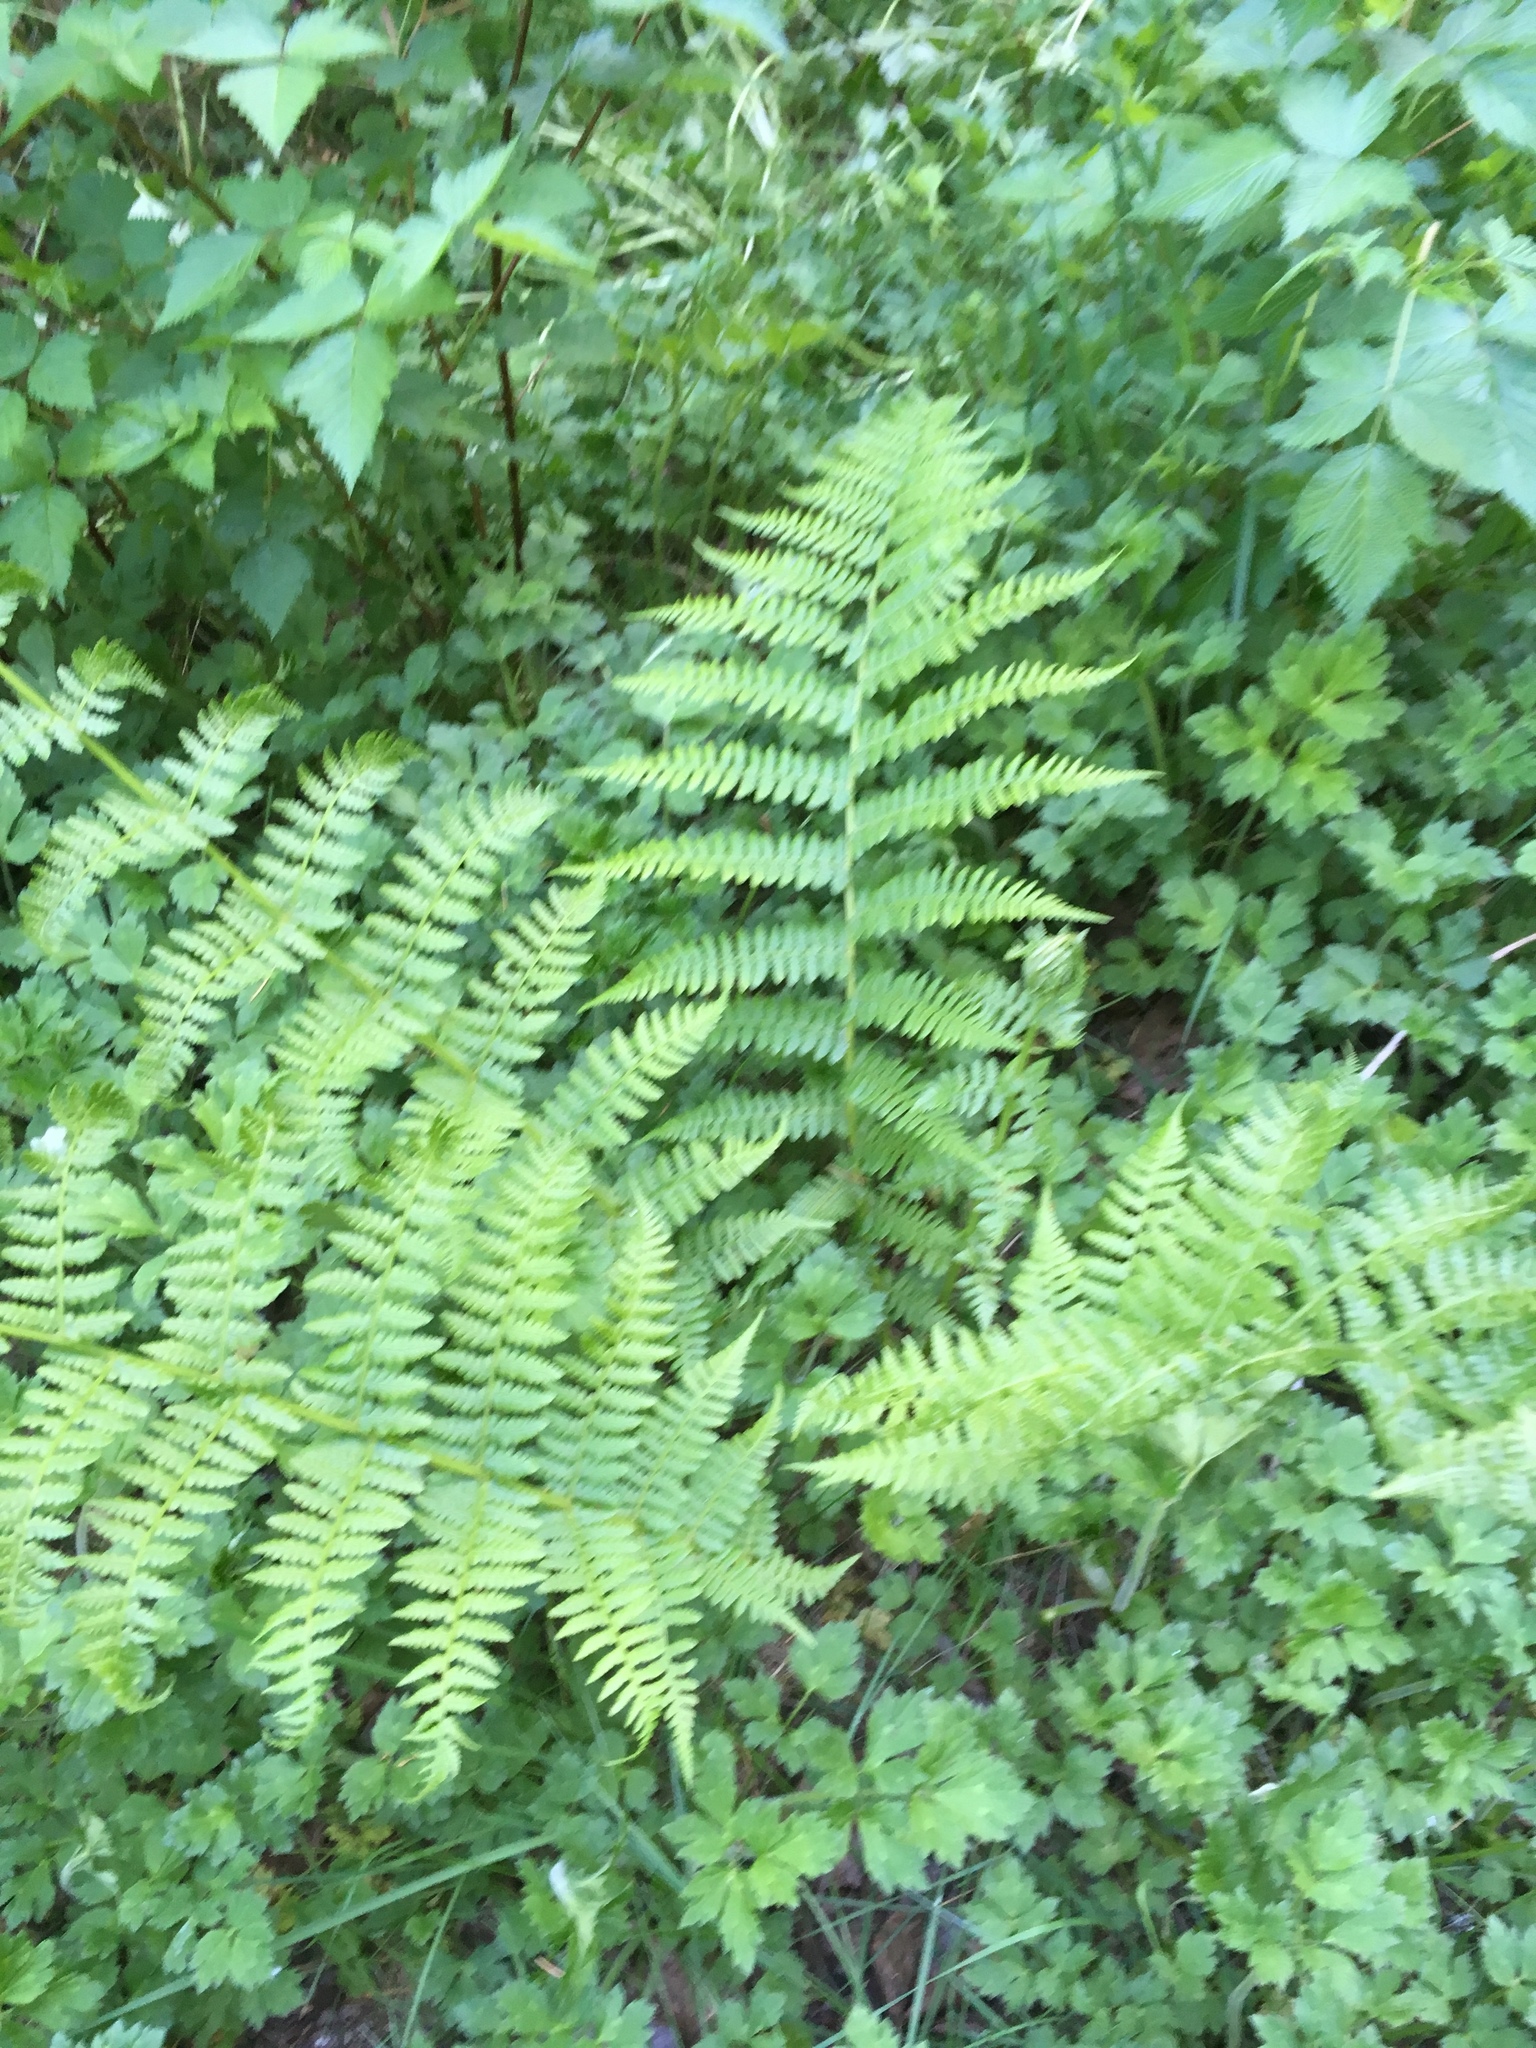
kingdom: Plantae
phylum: Tracheophyta
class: Polypodiopsida
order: Polypodiales
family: Athyriaceae
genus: Athyrium
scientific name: Athyrium filix-femina
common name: Lady fern
